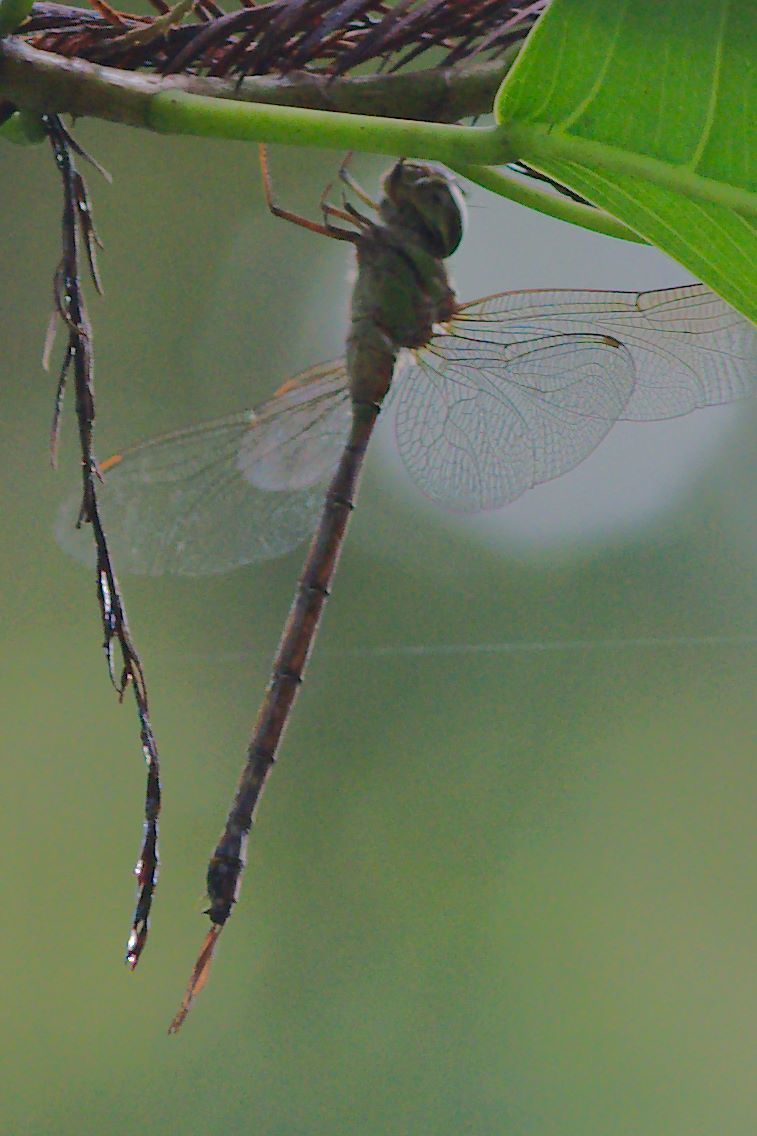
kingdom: Animalia
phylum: Arthropoda
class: Insecta
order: Odonata
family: Aeshnidae
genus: Triacanthagyna
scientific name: Triacanthagyna trifida
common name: Phantom darner
